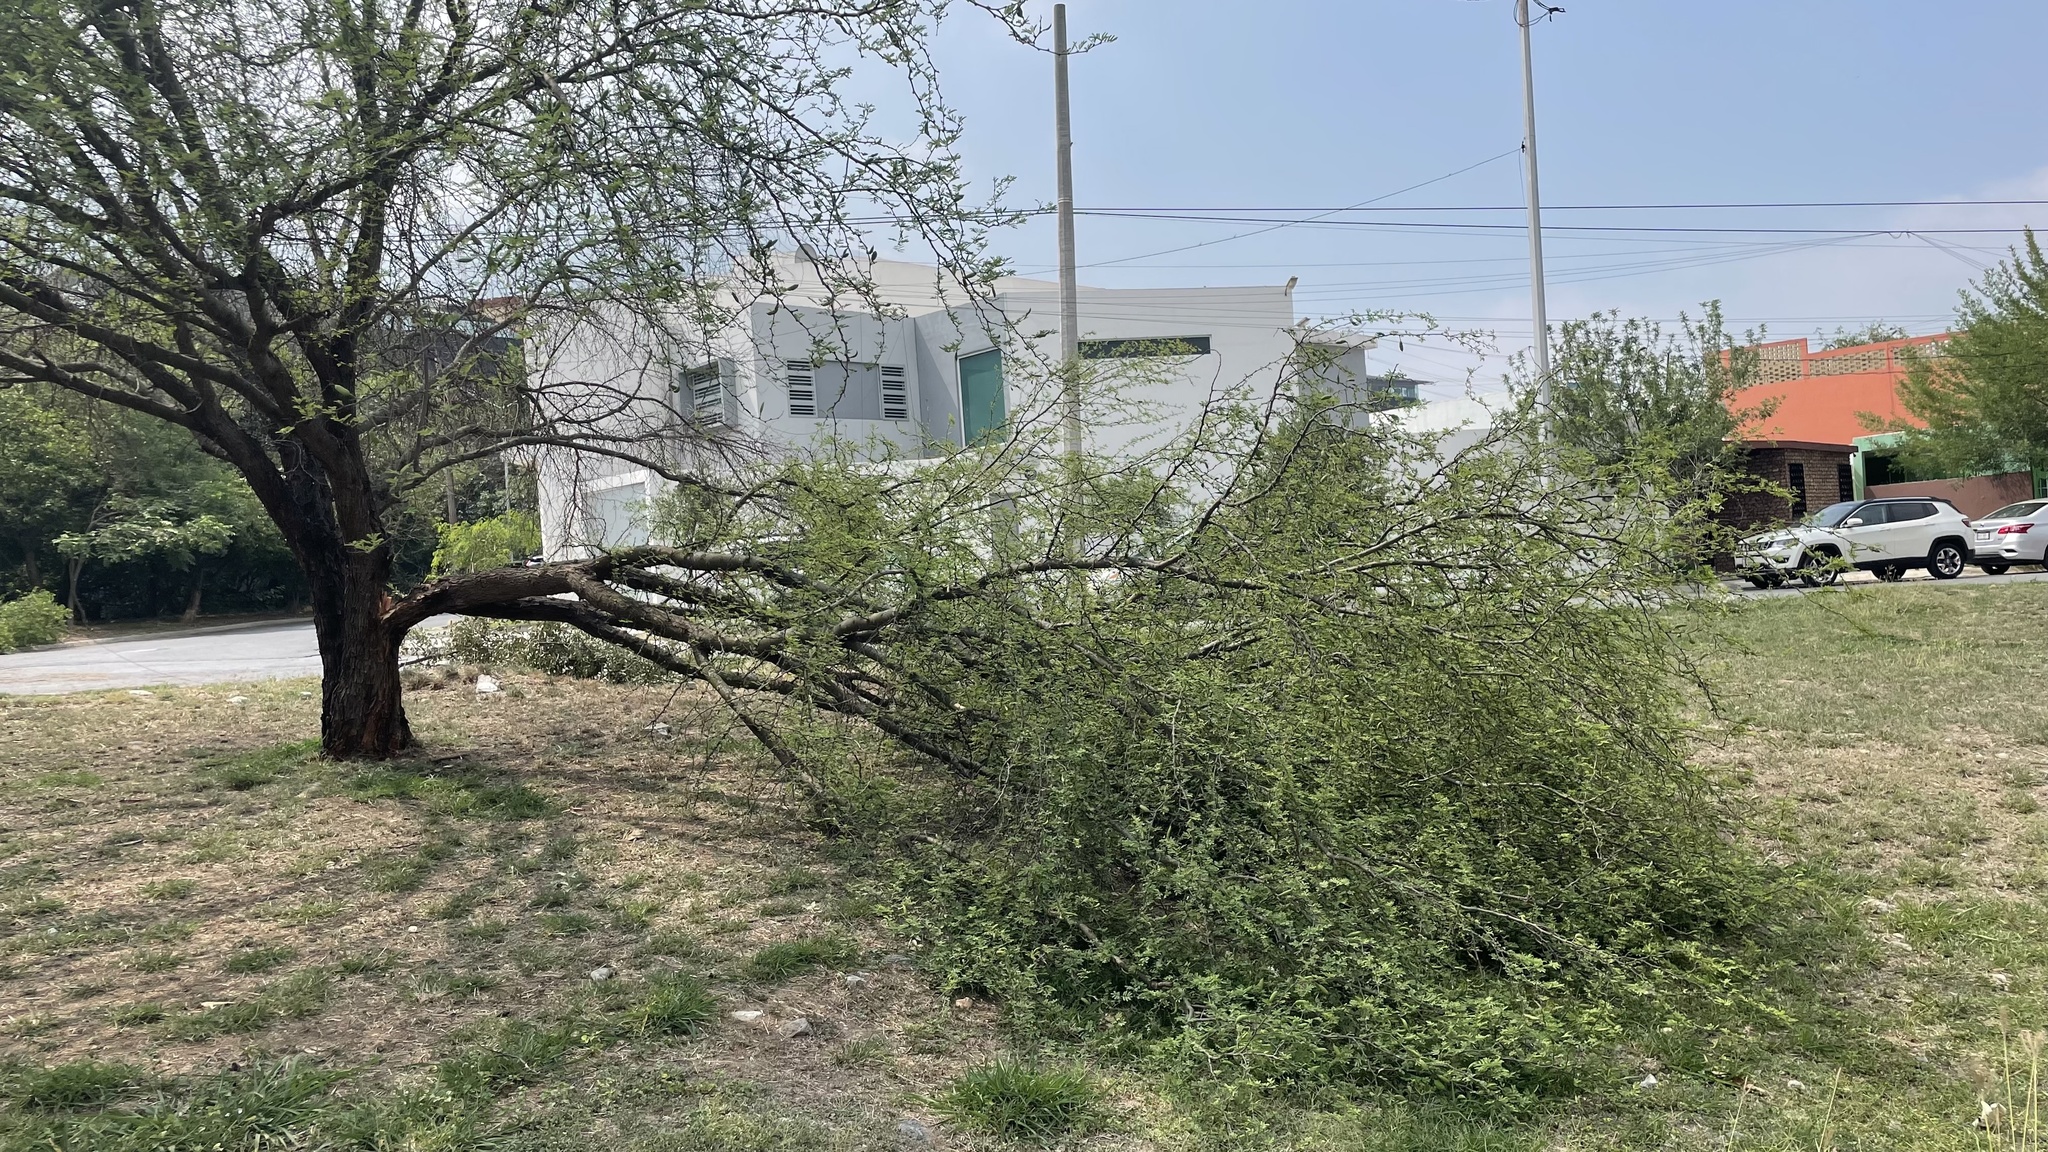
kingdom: Plantae
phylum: Tracheophyta
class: Magnoliopsida
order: Fabales
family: Fabaceae
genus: Vachellia
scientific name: Vachellia farnesiana
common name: Sweet acacia
